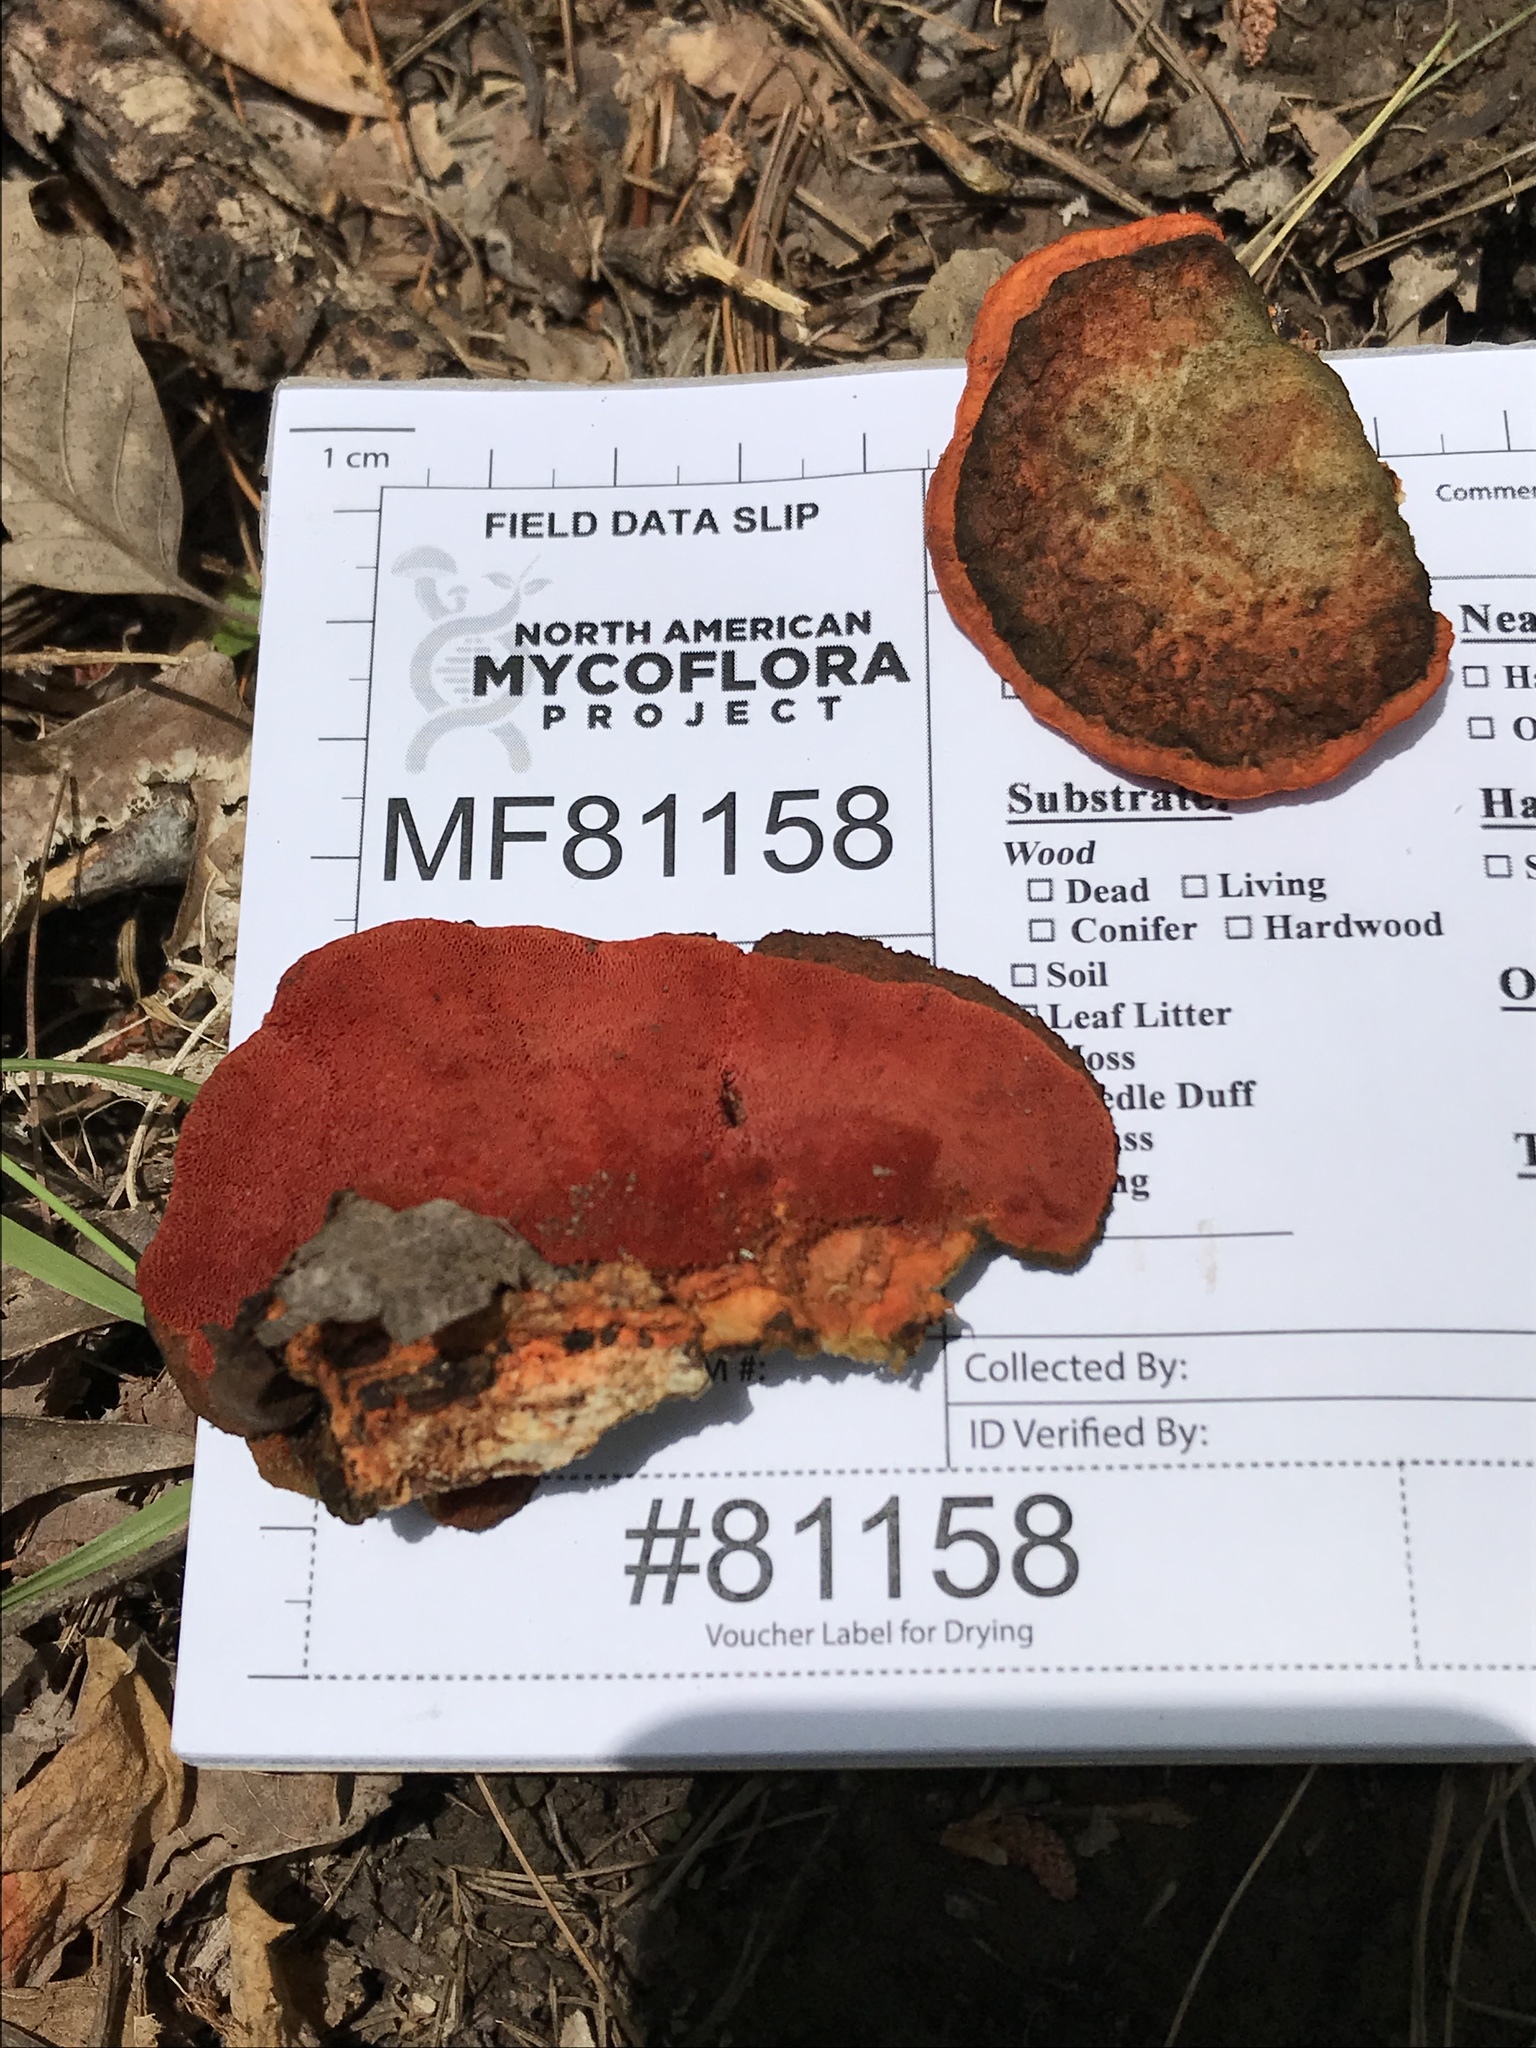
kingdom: Fungi
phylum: Basidiomycota
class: Agaricomycetes
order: Polyporales
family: Polyporaceae
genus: Trametes
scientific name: Trametes cinnabarina
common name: Northern cinnabar polypore
